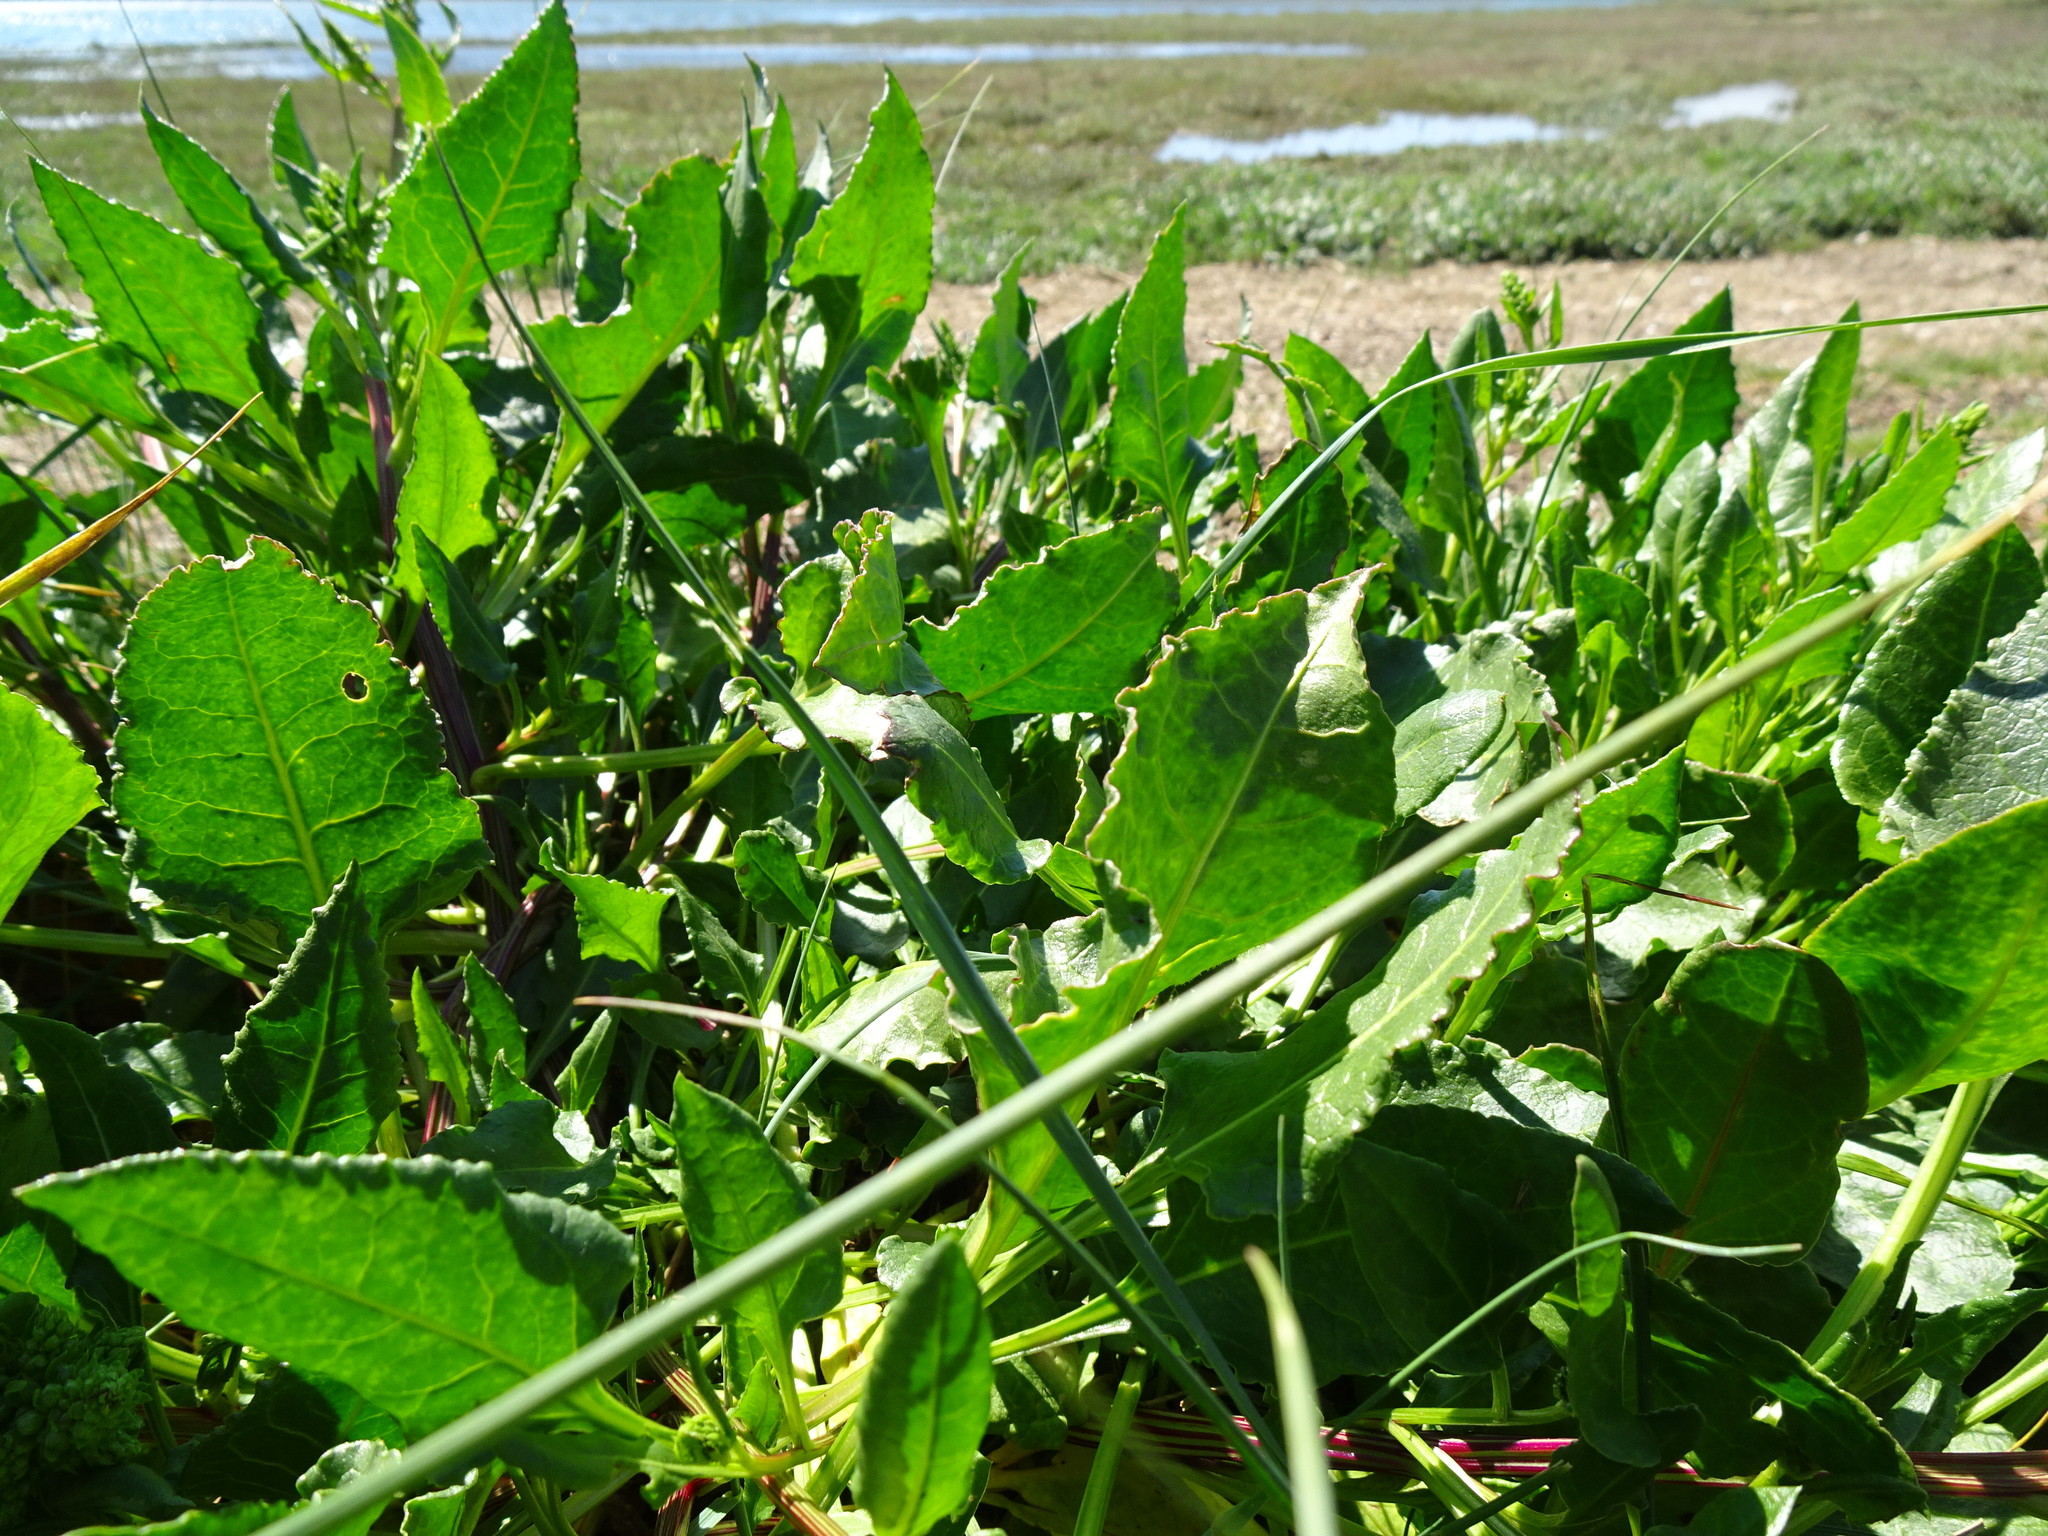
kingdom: Plantae
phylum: Tracheophyta
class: Magnoliopsida
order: Caryophyllales
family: Amaranthaceae
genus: Beta
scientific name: Beta vulgaris
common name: Beet
